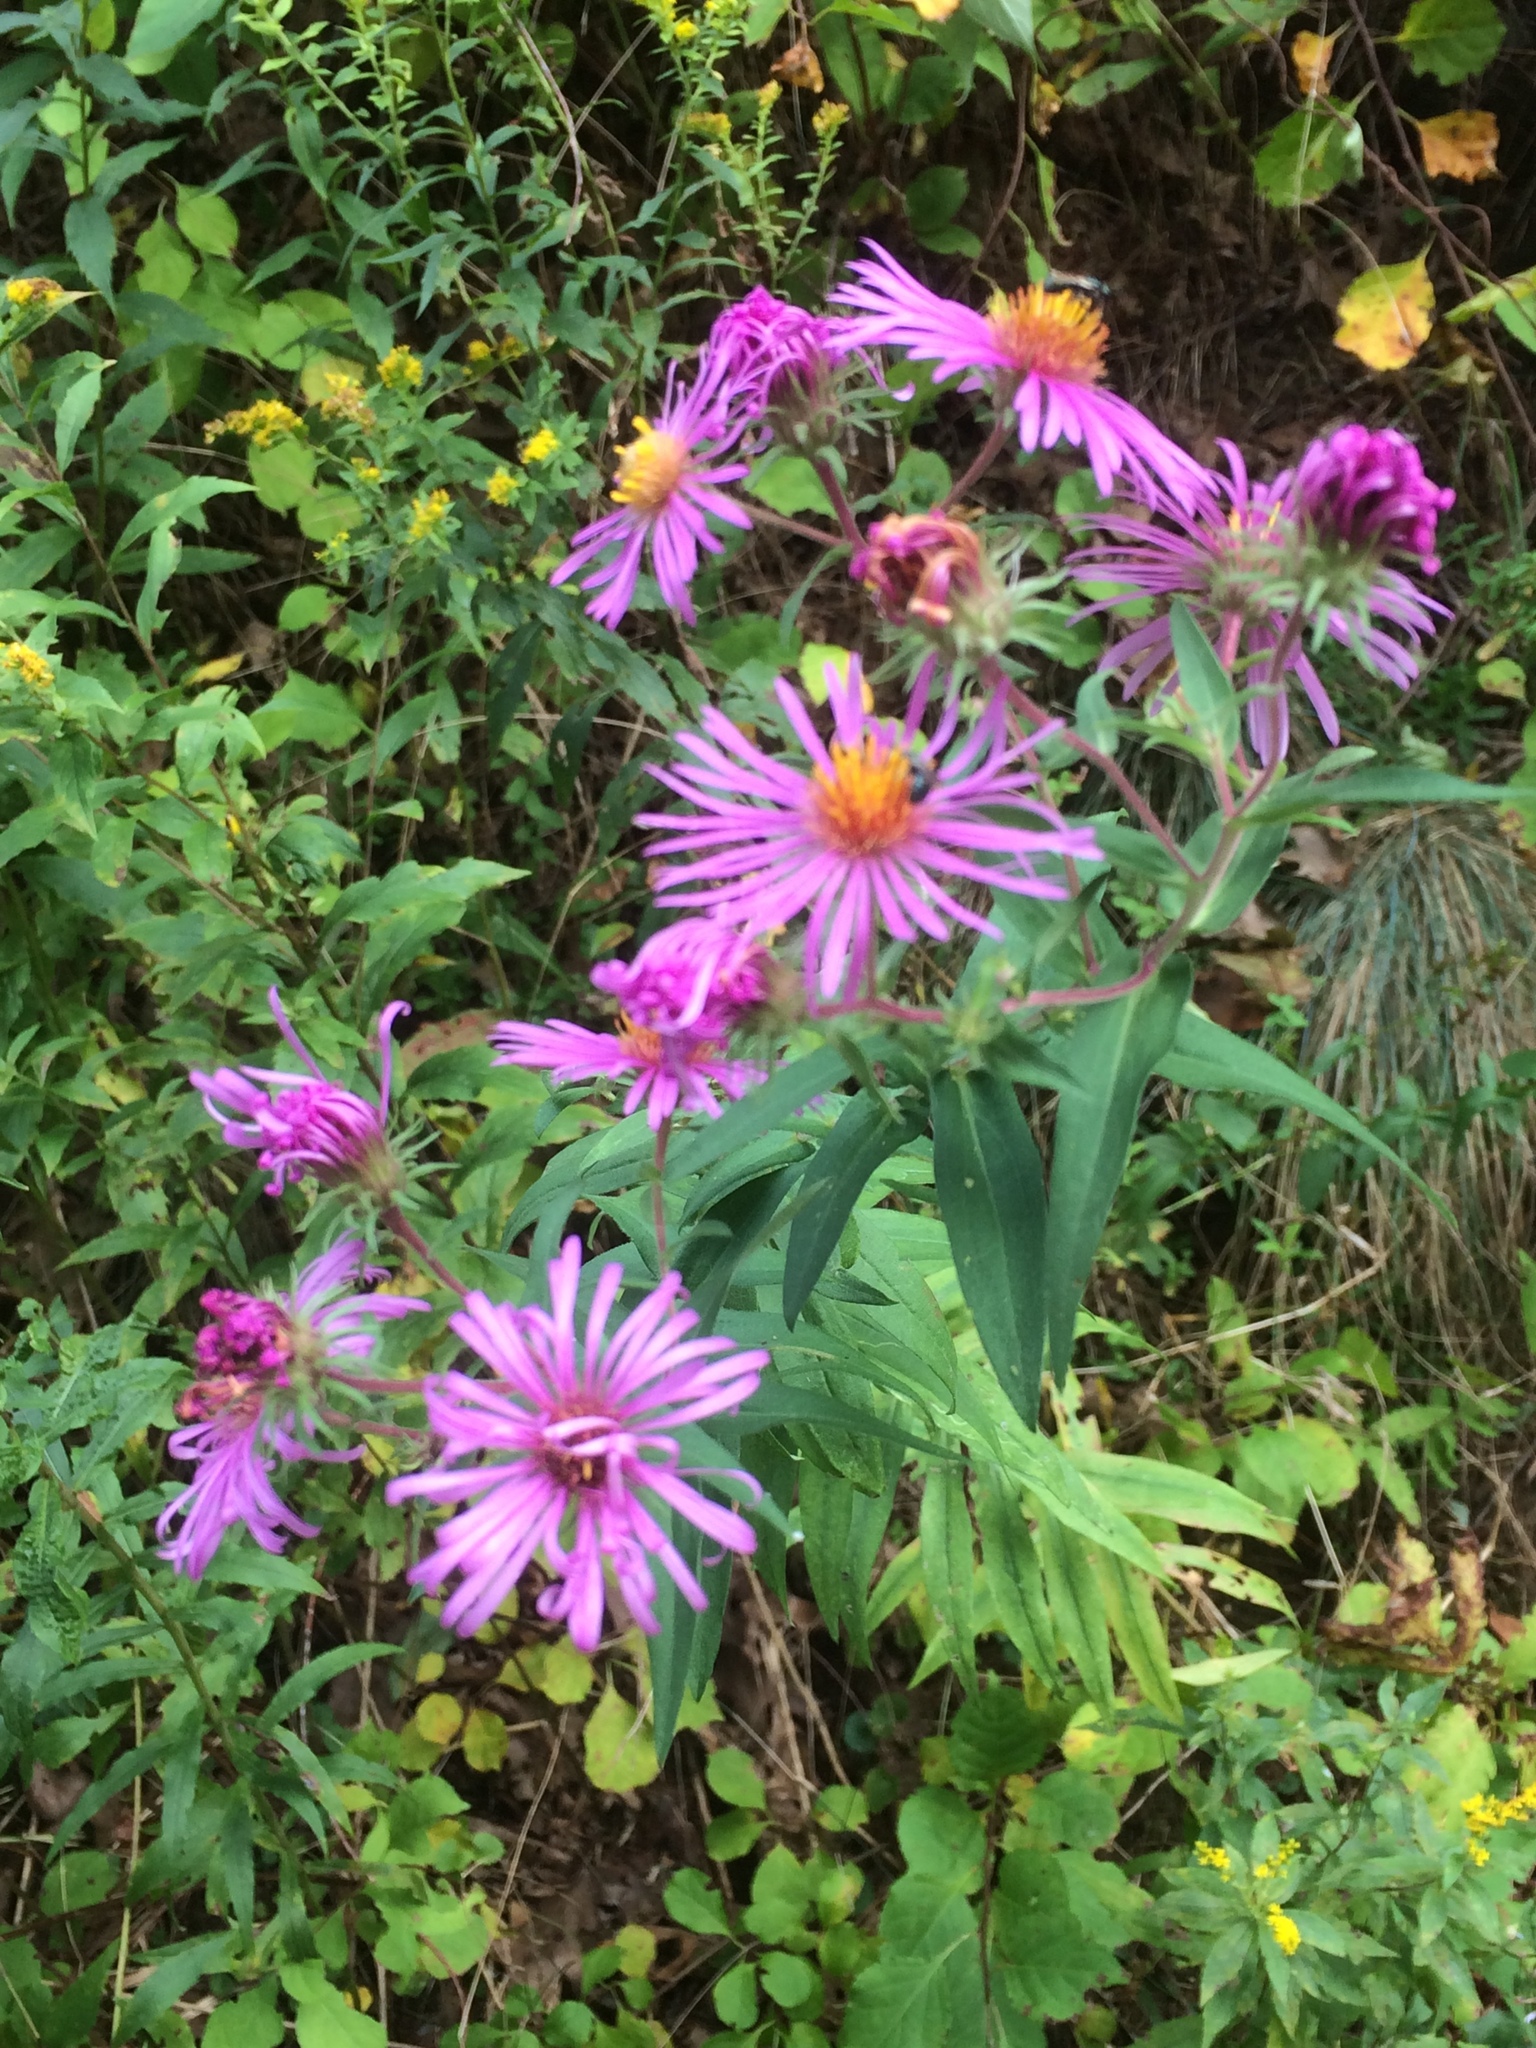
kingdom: Plantae
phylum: Tracheophyta
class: Magnoliopsida
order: Asterales
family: Asteraceae
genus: Symphyotrichum
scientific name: Symphyotrichum novae-angliae
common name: Michaelmas daisy
